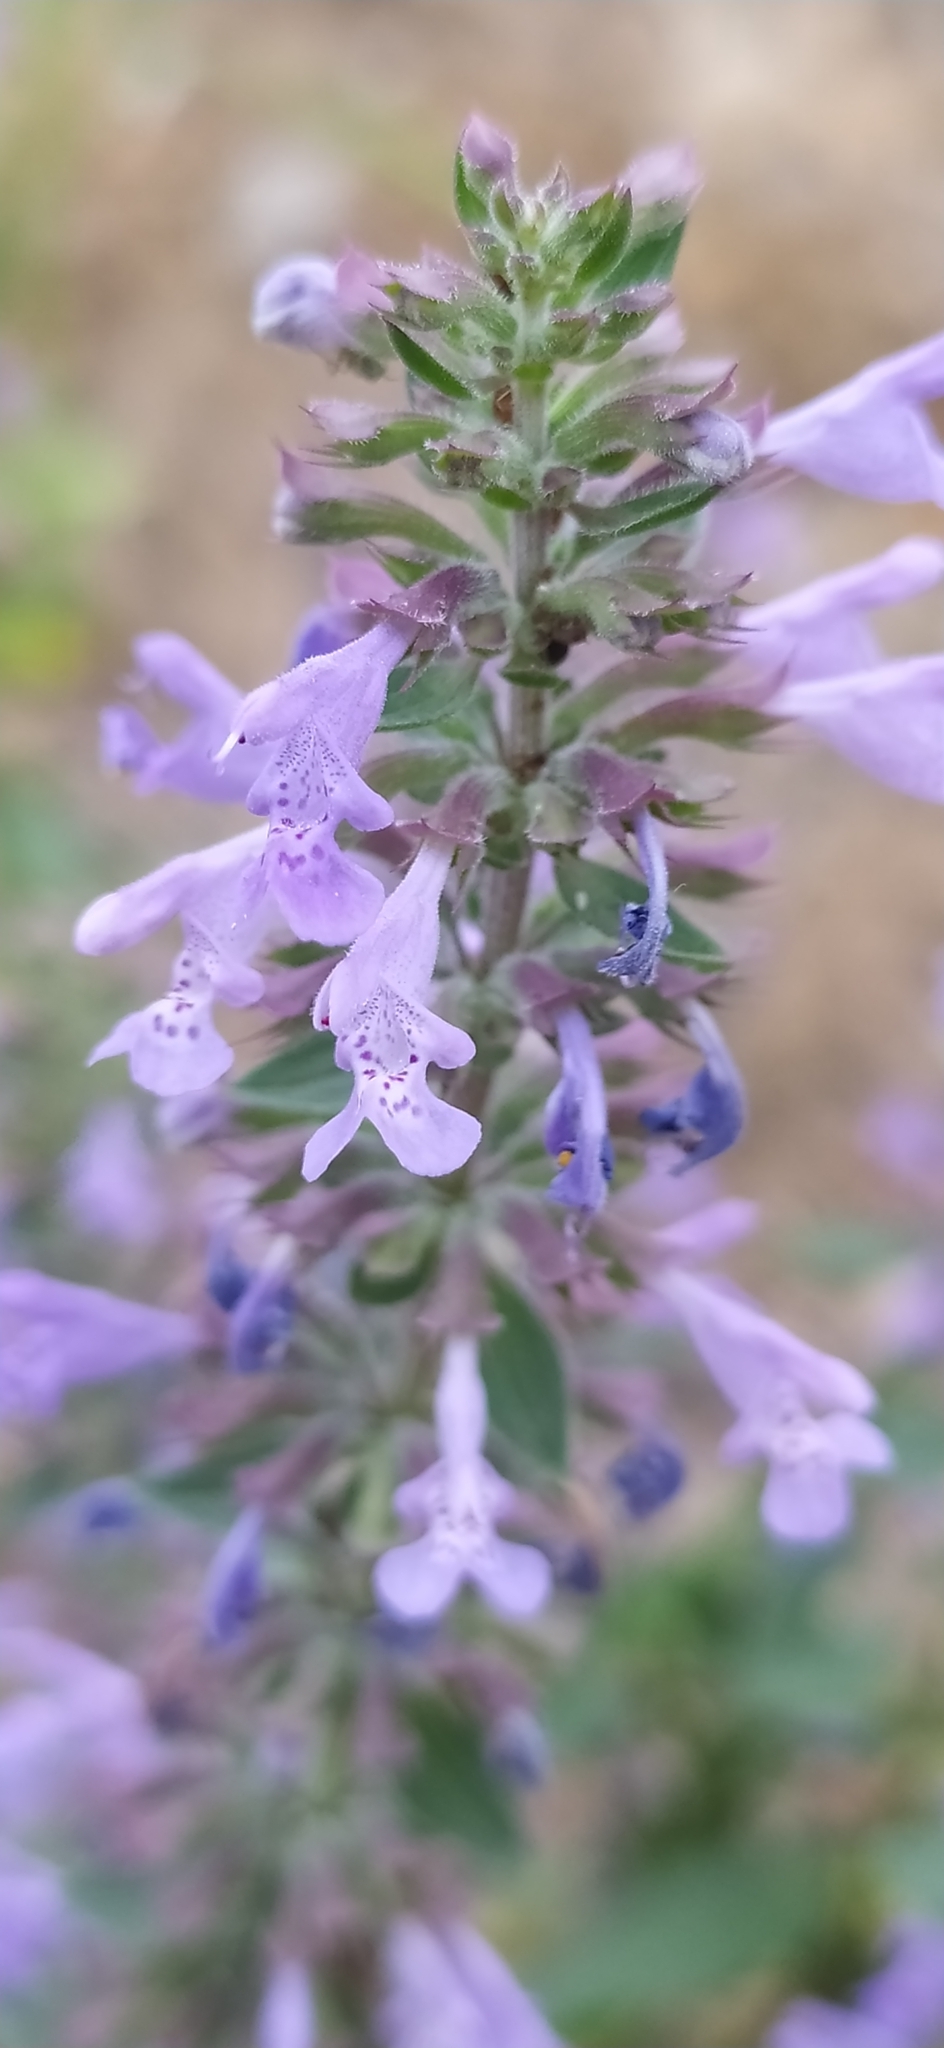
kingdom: Plantae
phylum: Tracheophyta
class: Magnoliopsida
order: Lamiales
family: Lamiaceae
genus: Dracocephalum
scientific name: Dracocephalum nutans
